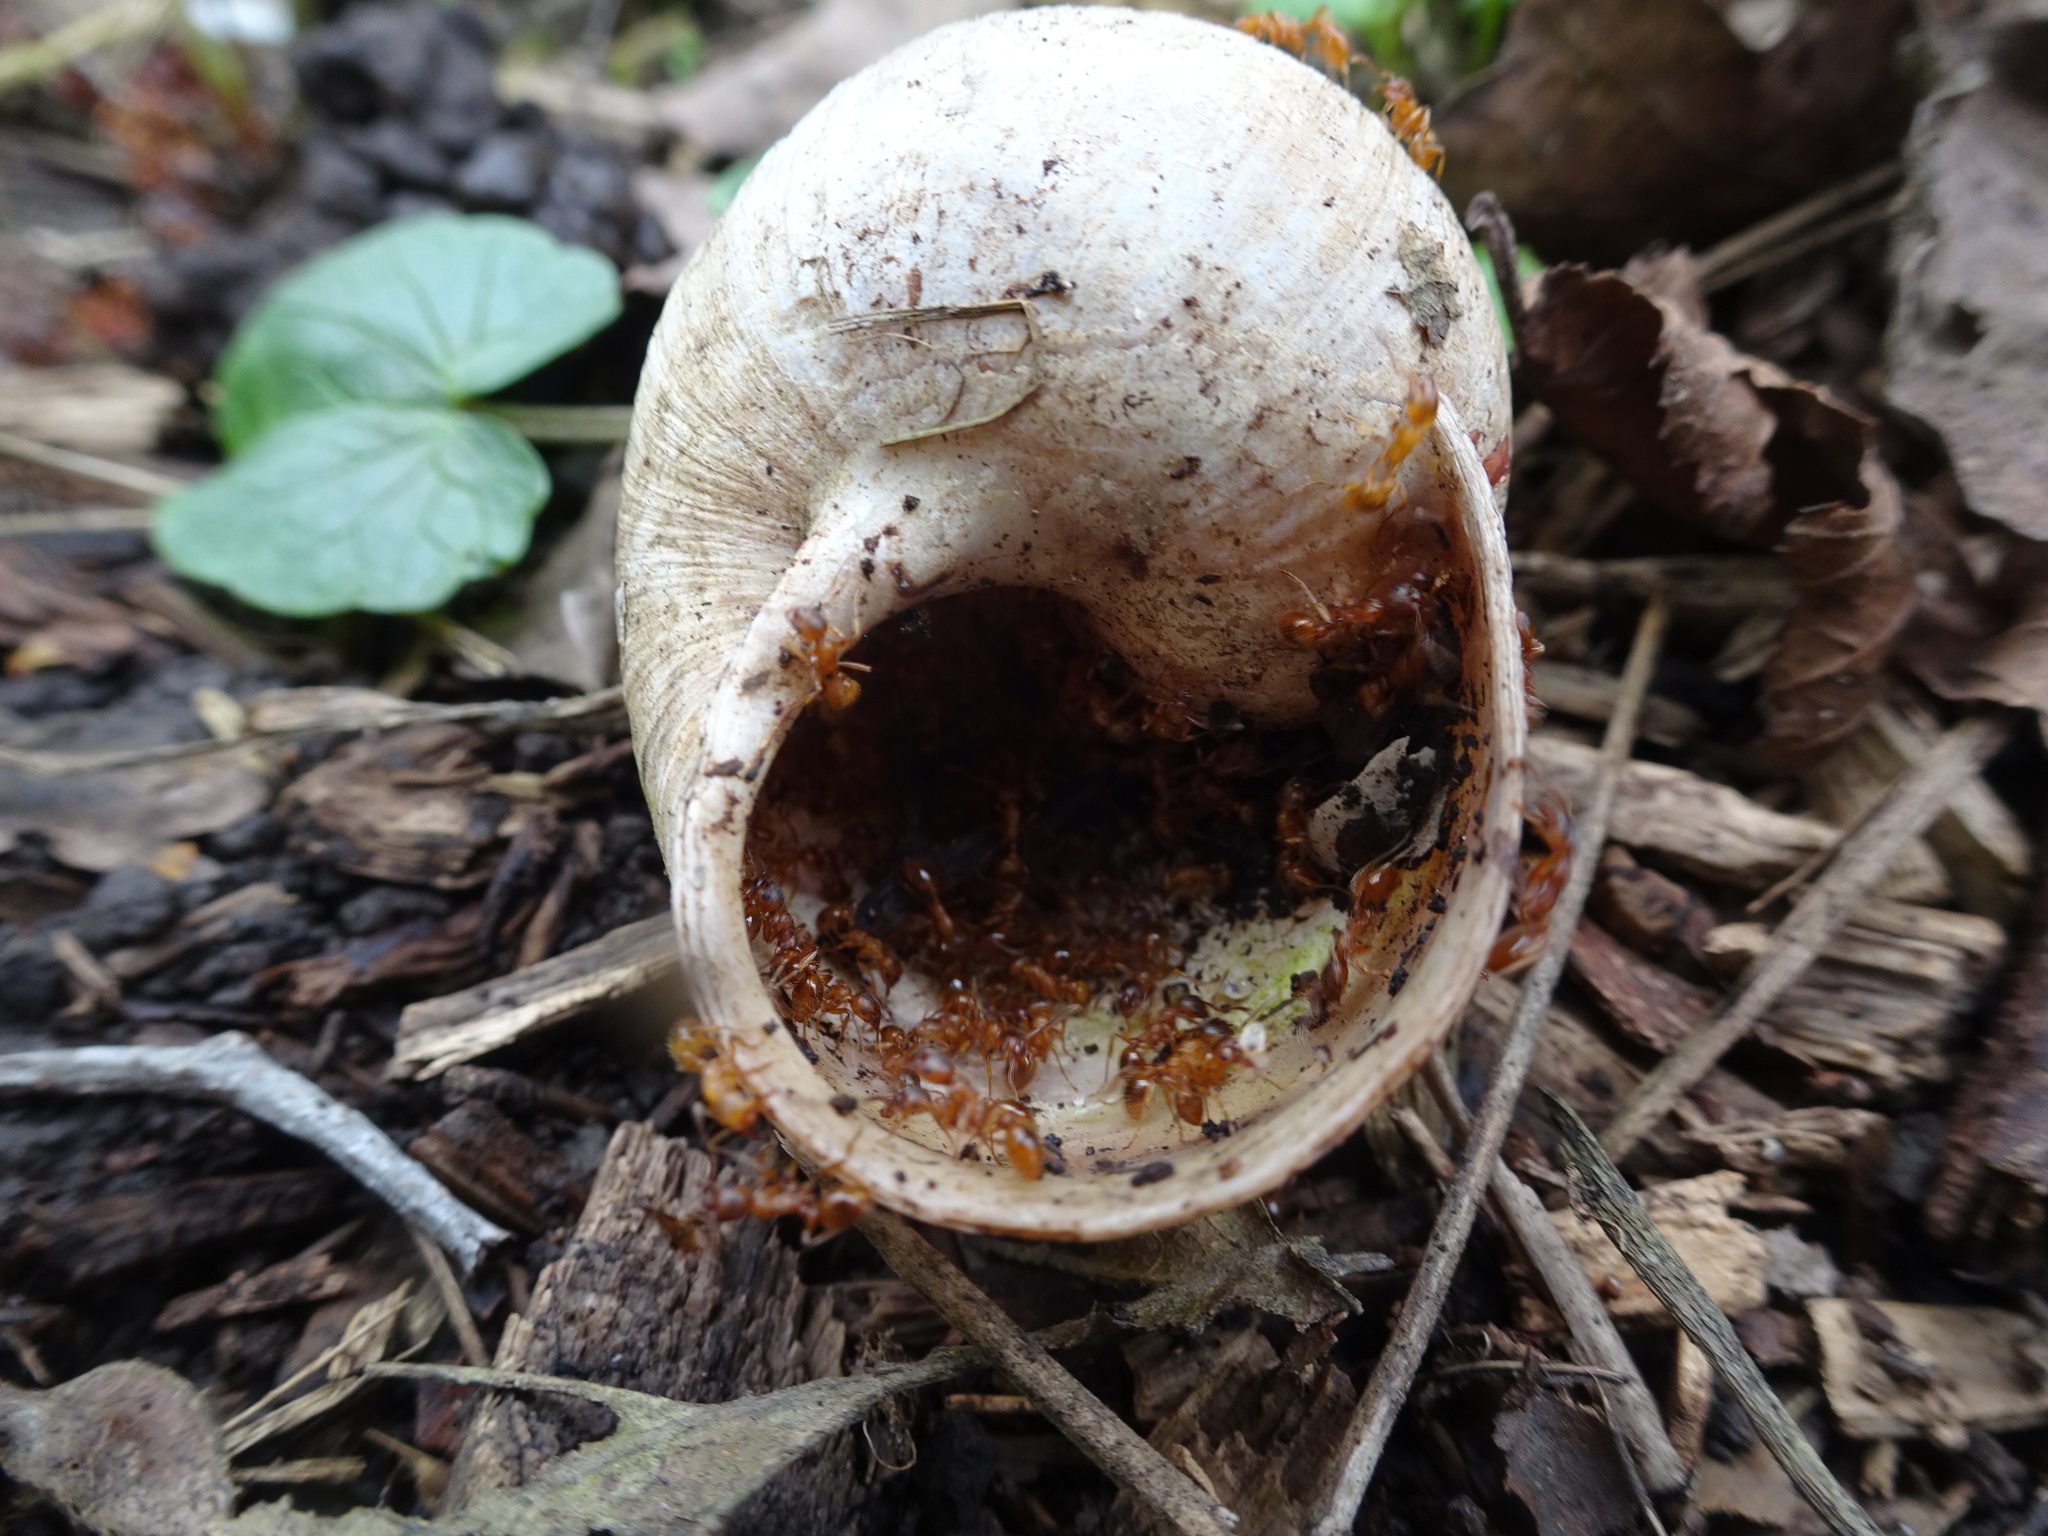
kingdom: Animalia
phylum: Mollusca
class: Gastropoda
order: Stylommatophora
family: Helicidae
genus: Helix
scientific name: Helix pomatia
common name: Roman snail
